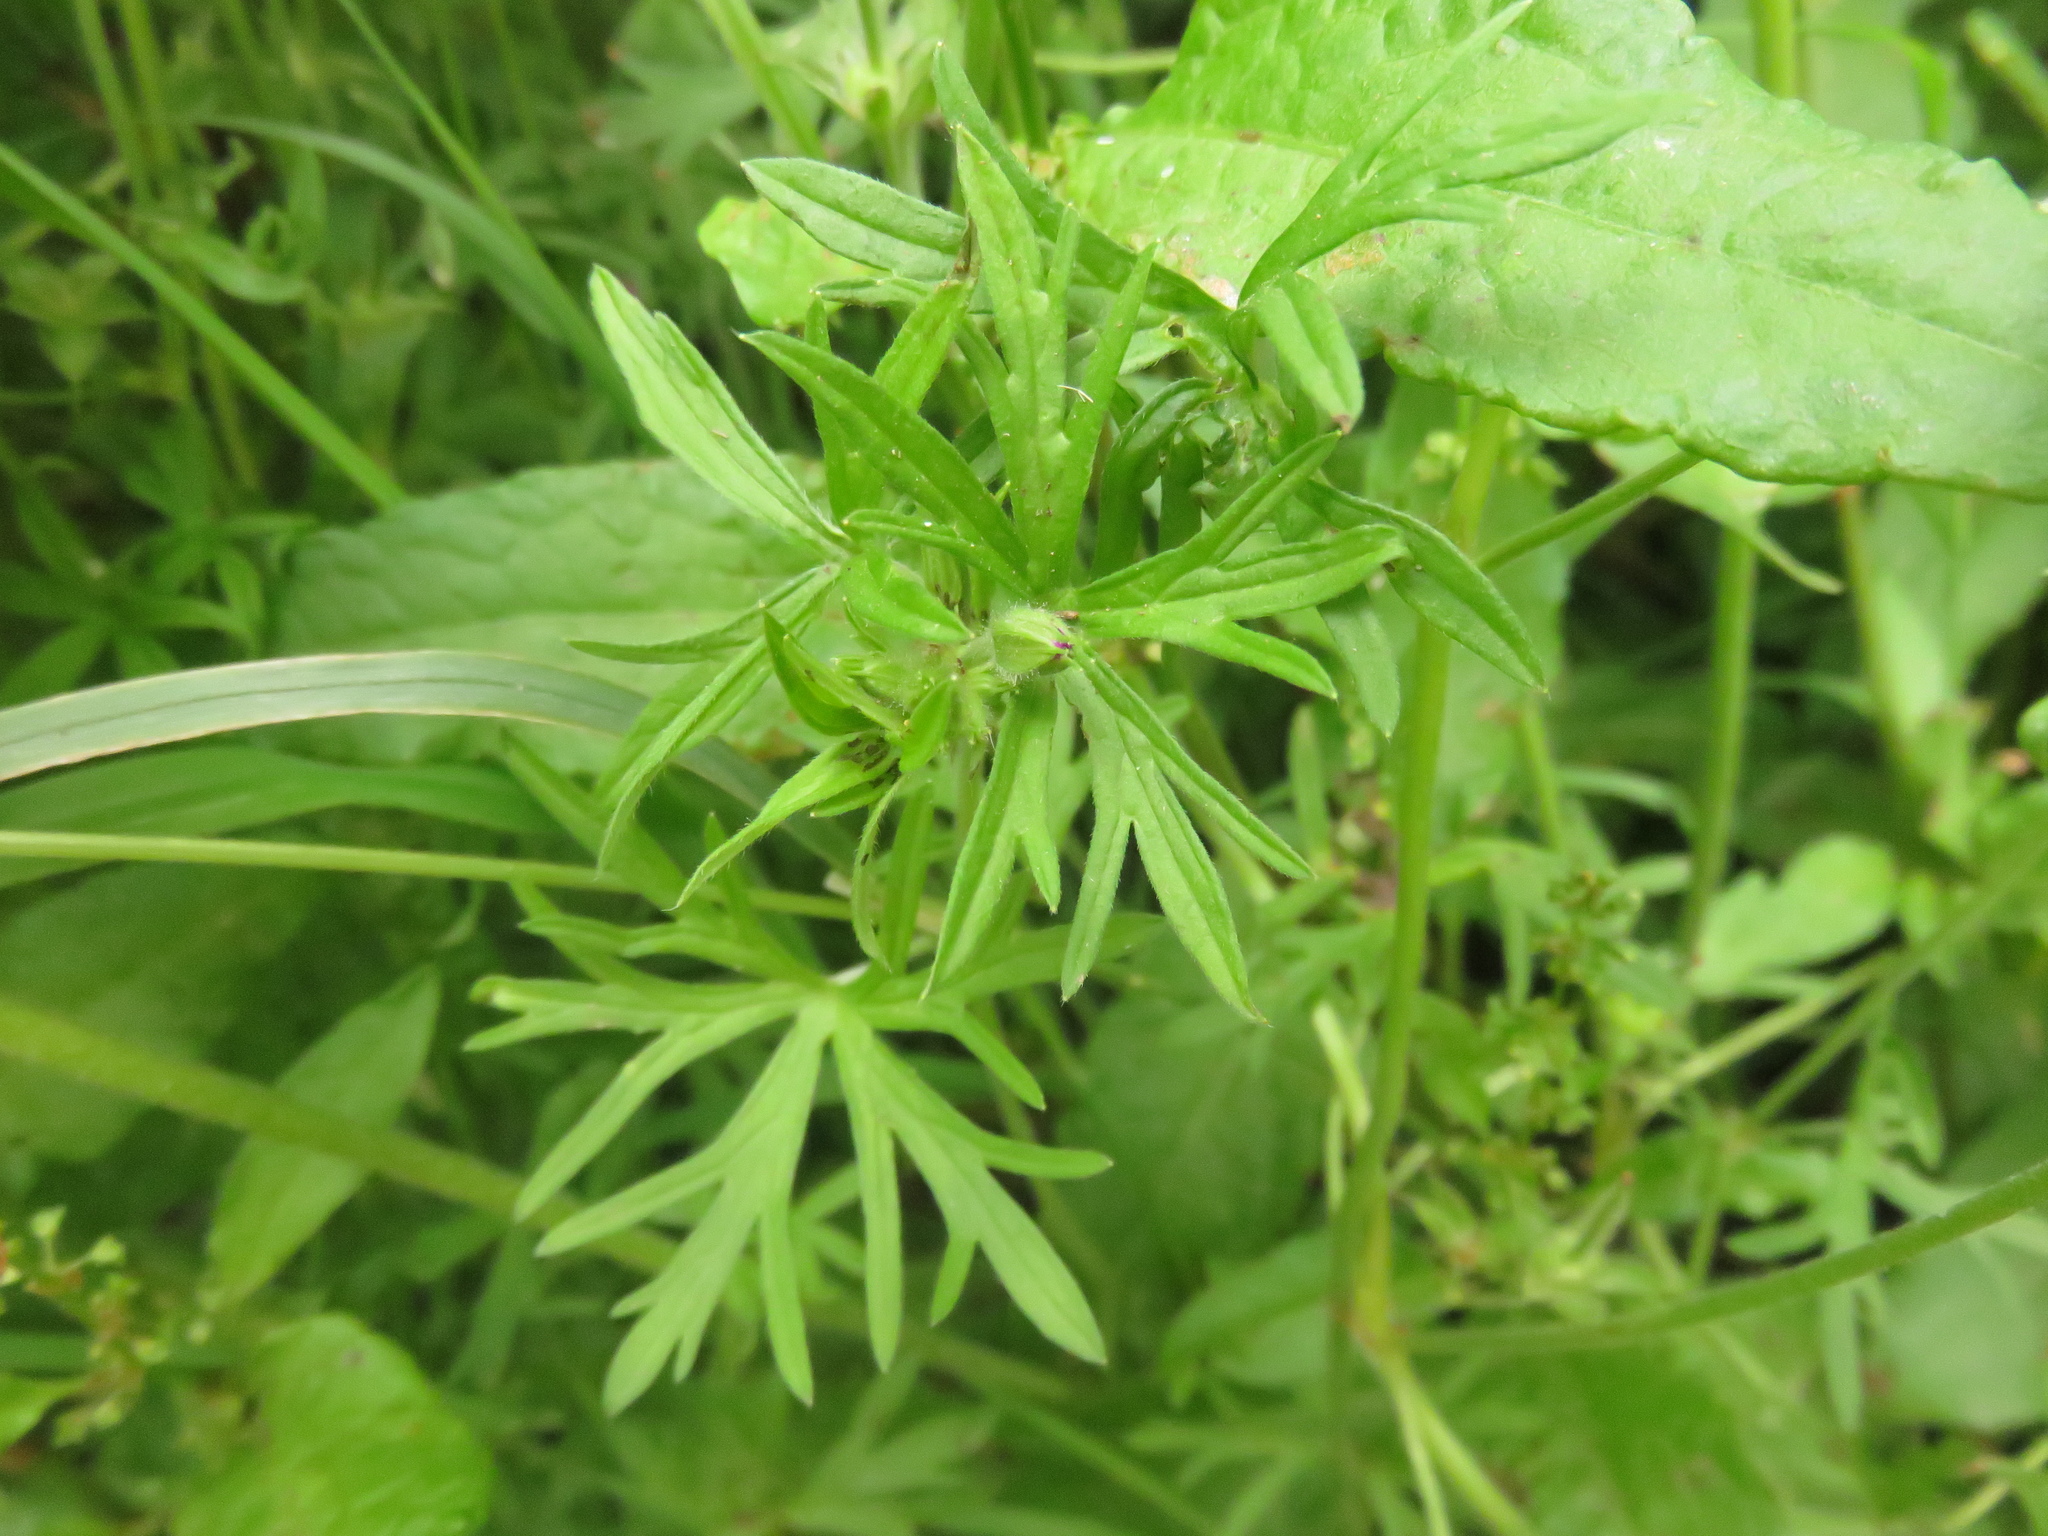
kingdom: Plantae
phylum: Tracheophyta
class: Magnoliopsida
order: Geraniales
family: Geraniaceae
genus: Geranium
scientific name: Geranium dissectum
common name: Cut-leaved crane's-bill
